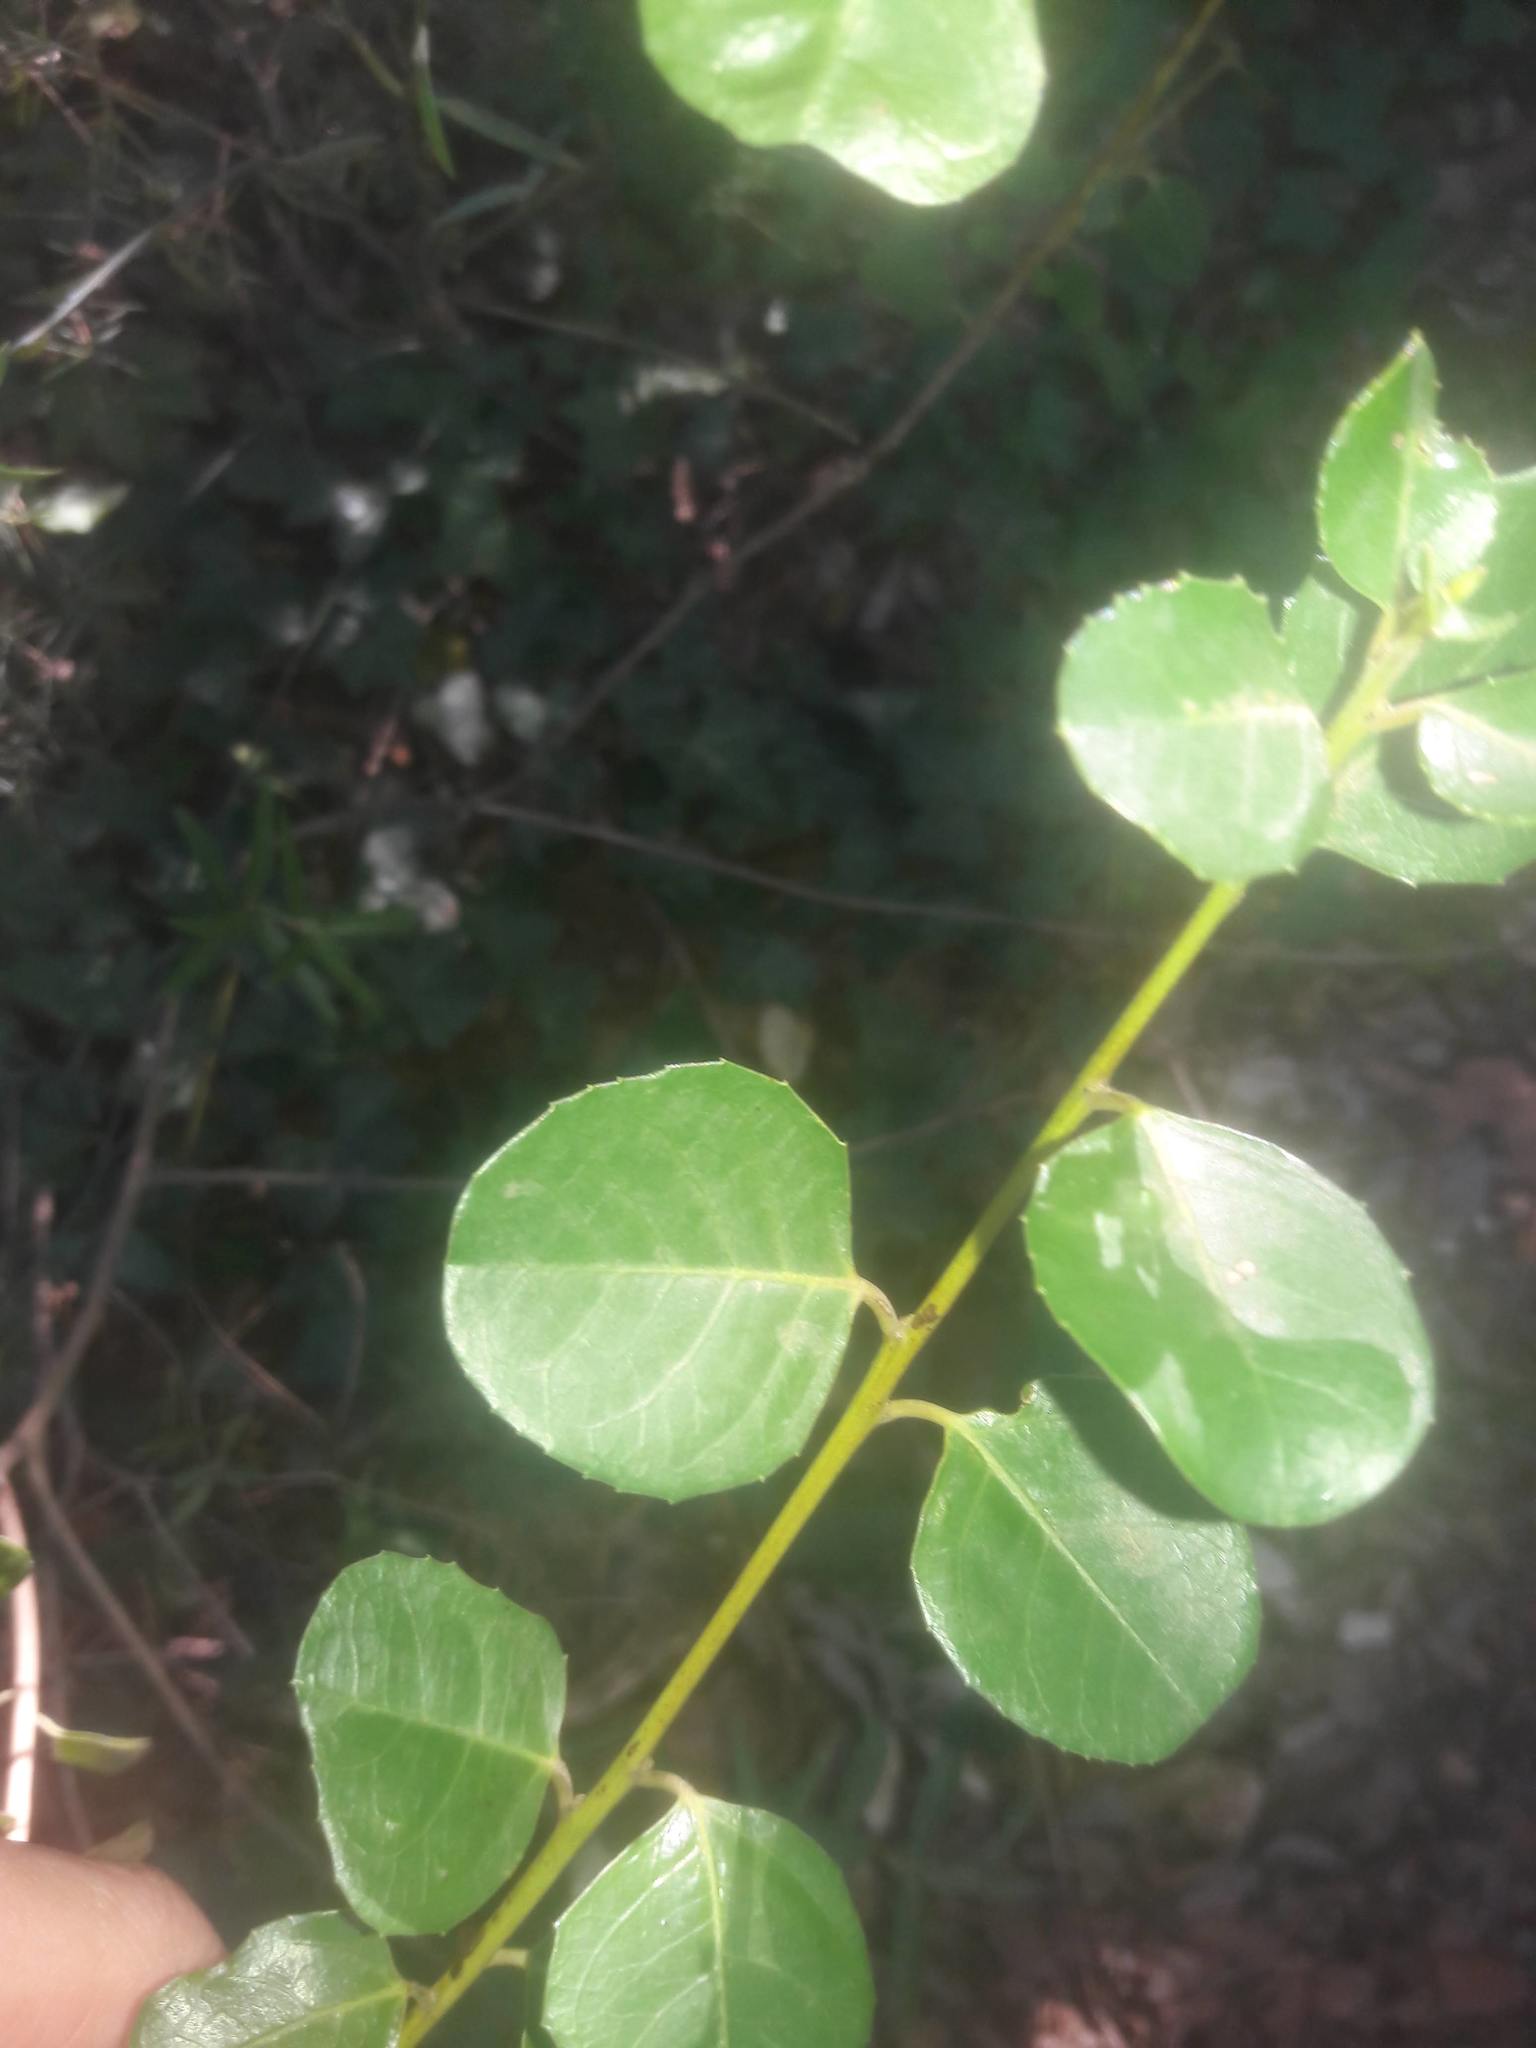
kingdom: Plantae
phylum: Tracheophyta
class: Magnoliopsida
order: Rosales
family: Rhamnaceae
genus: Rhamnus
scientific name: Rhamnus alaternus
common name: Mediterranean buckthorn
